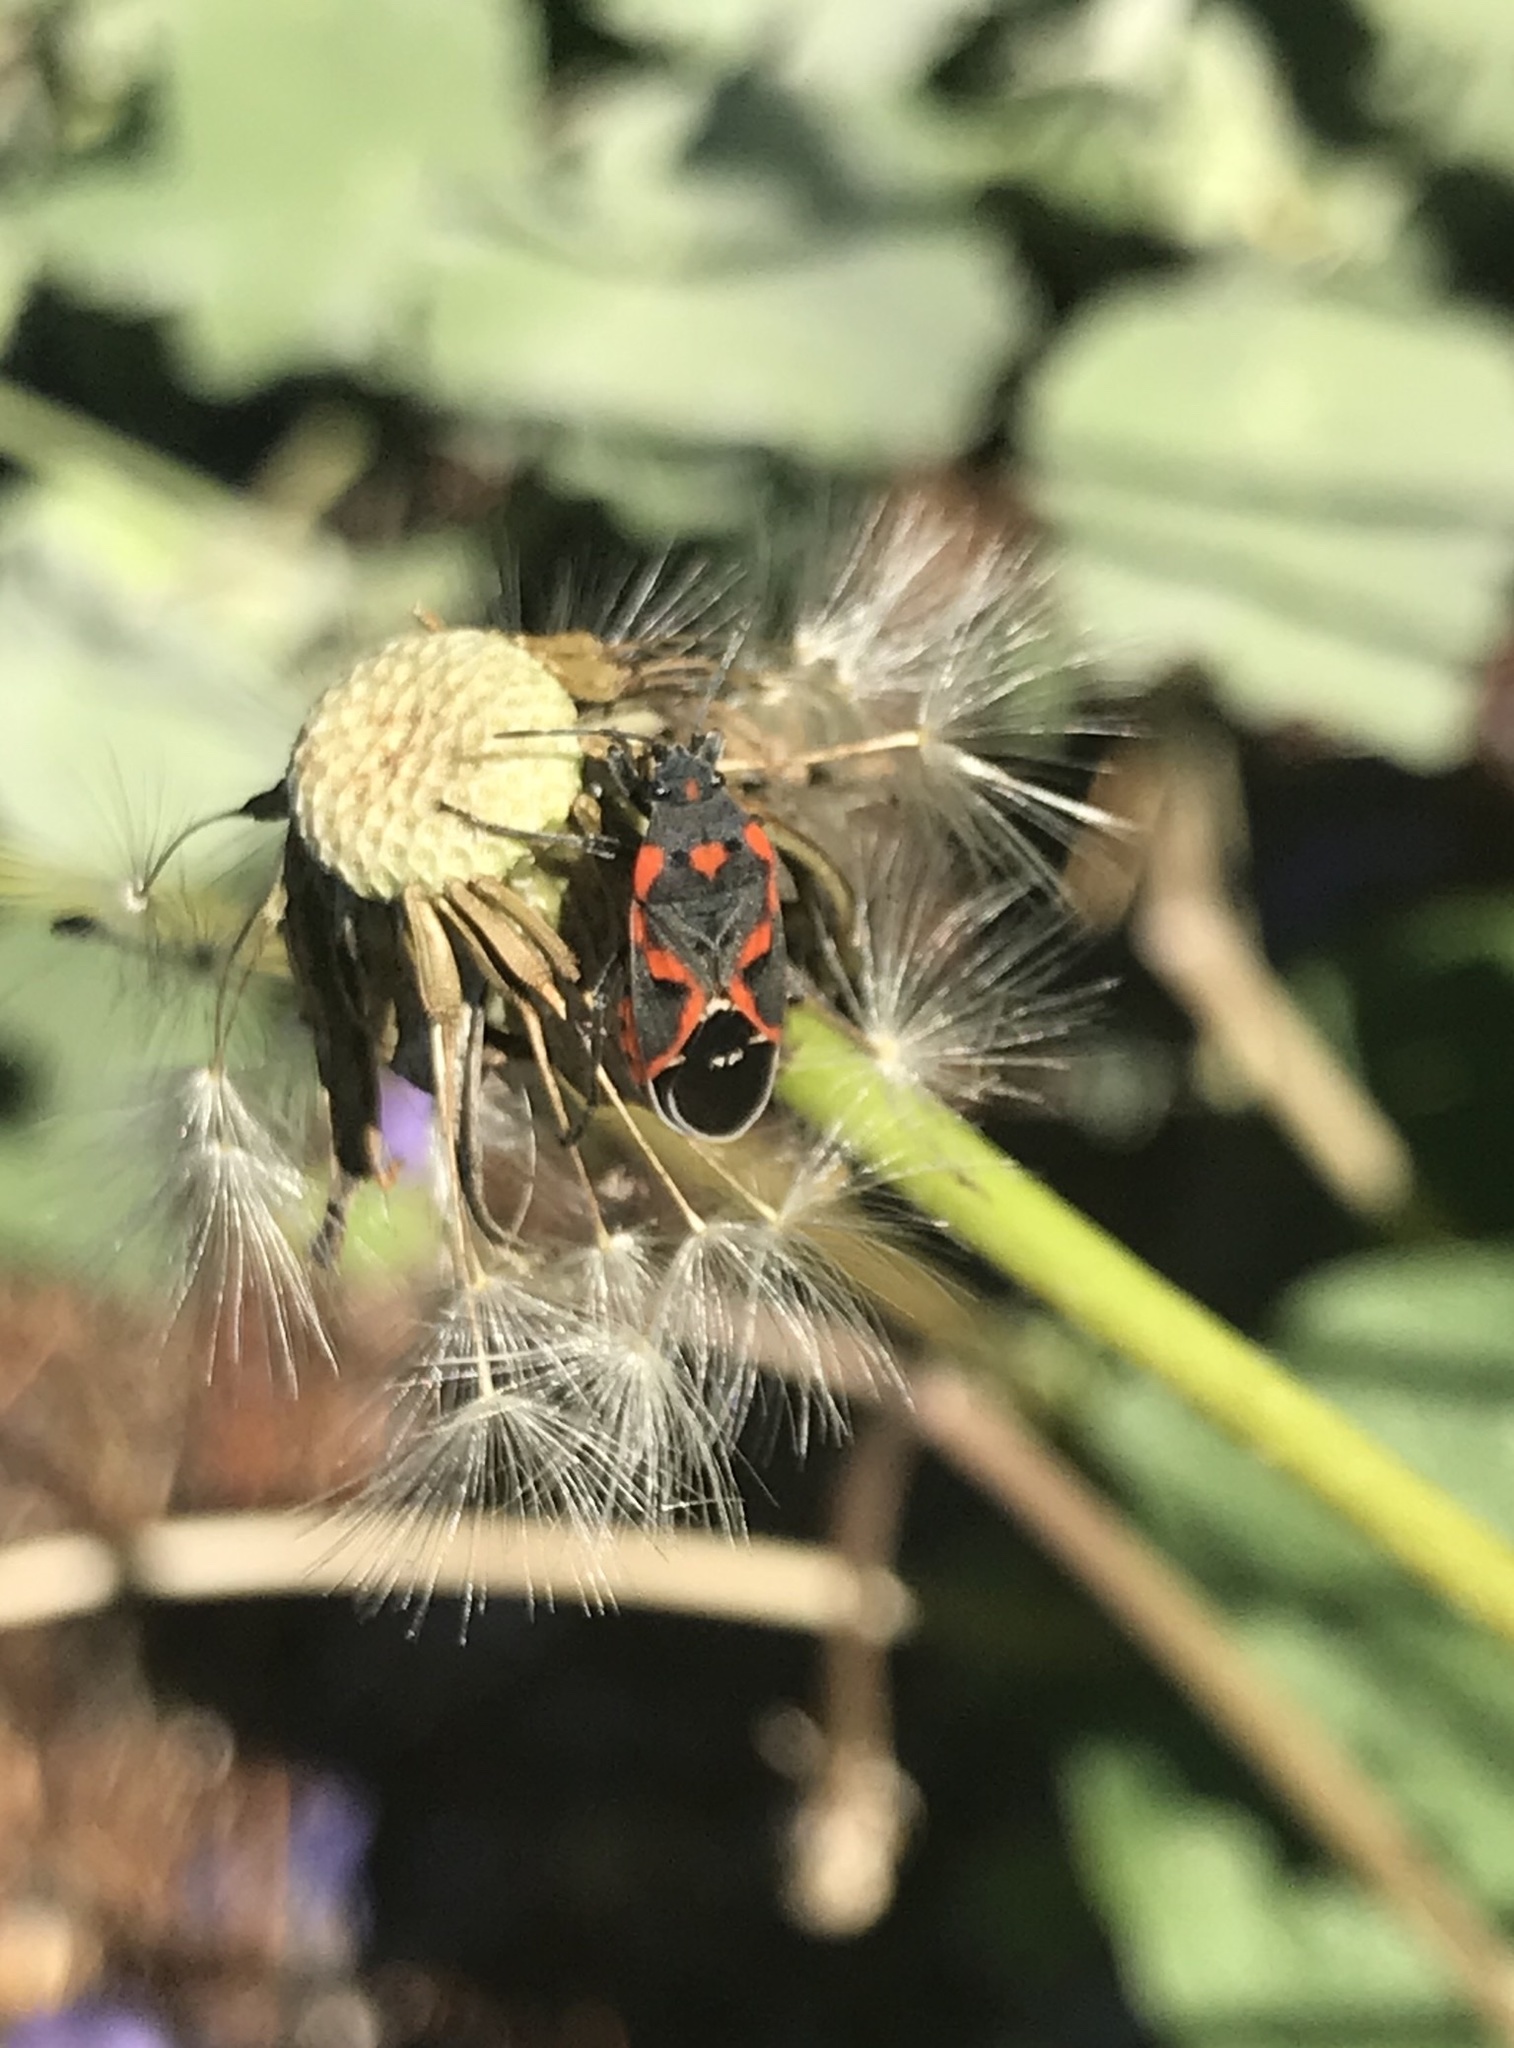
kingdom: Animalia
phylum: Arthropoda
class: Insecta
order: Hemiptera
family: Lygaeidae
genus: Lygaeus
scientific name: Lygaeus kalmii
